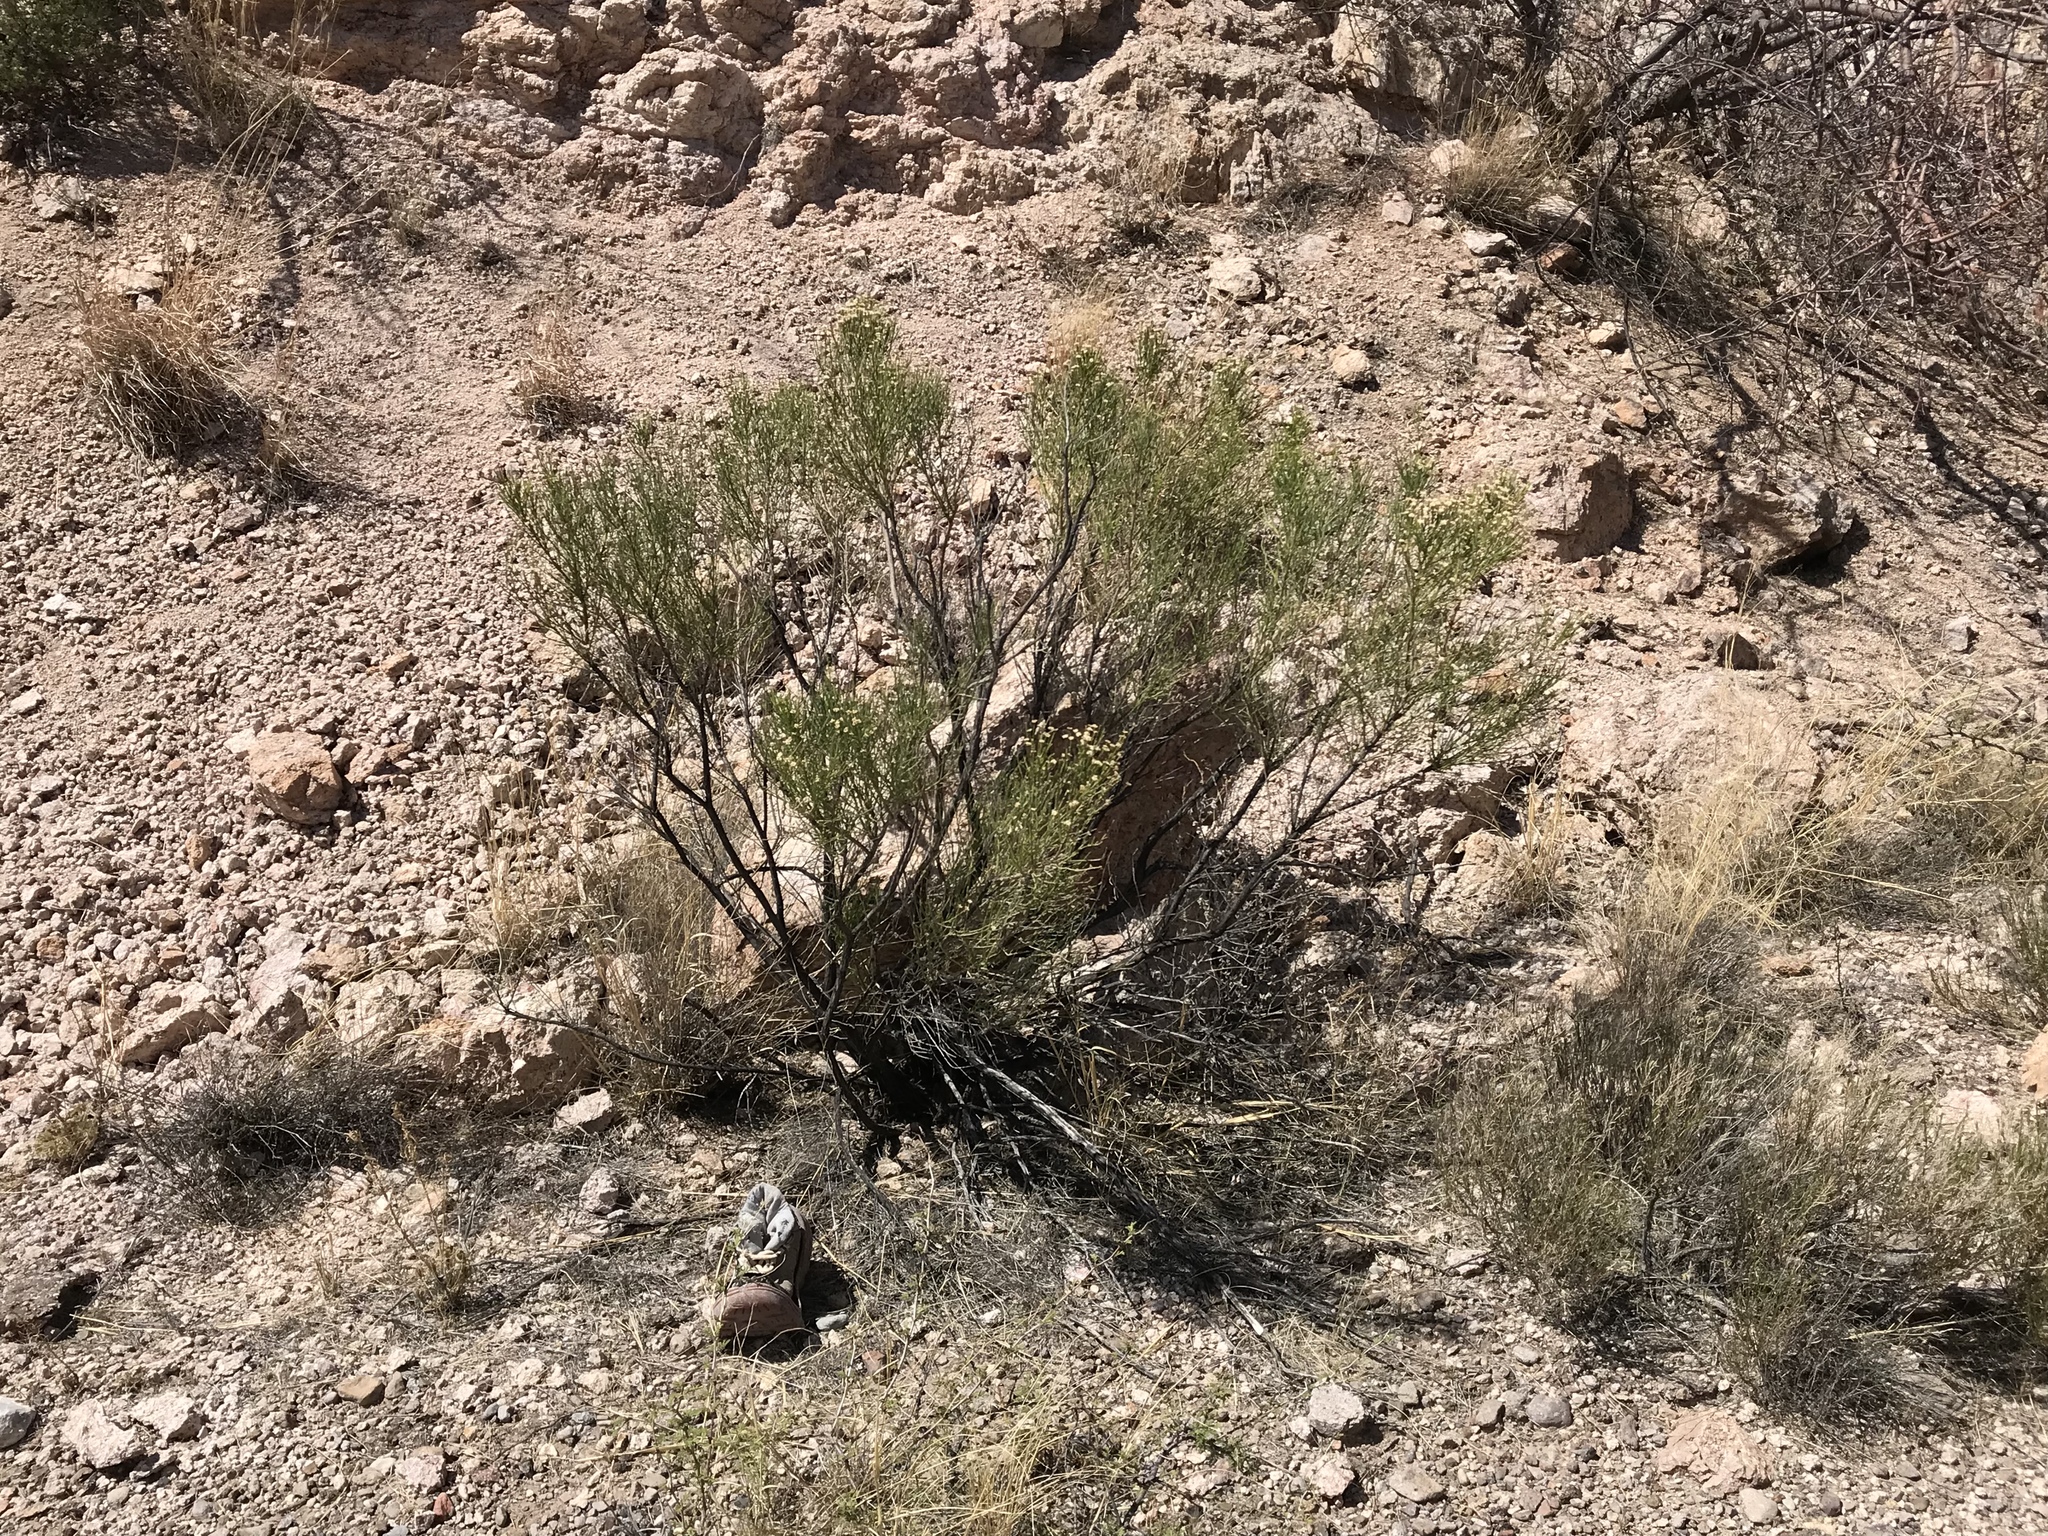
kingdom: Plantae
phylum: Tracheophyta
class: Magnoliopsida
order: Asterales
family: Asteraceae
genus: Baccharis
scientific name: Baccharis sarothroides
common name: Desert-broom
